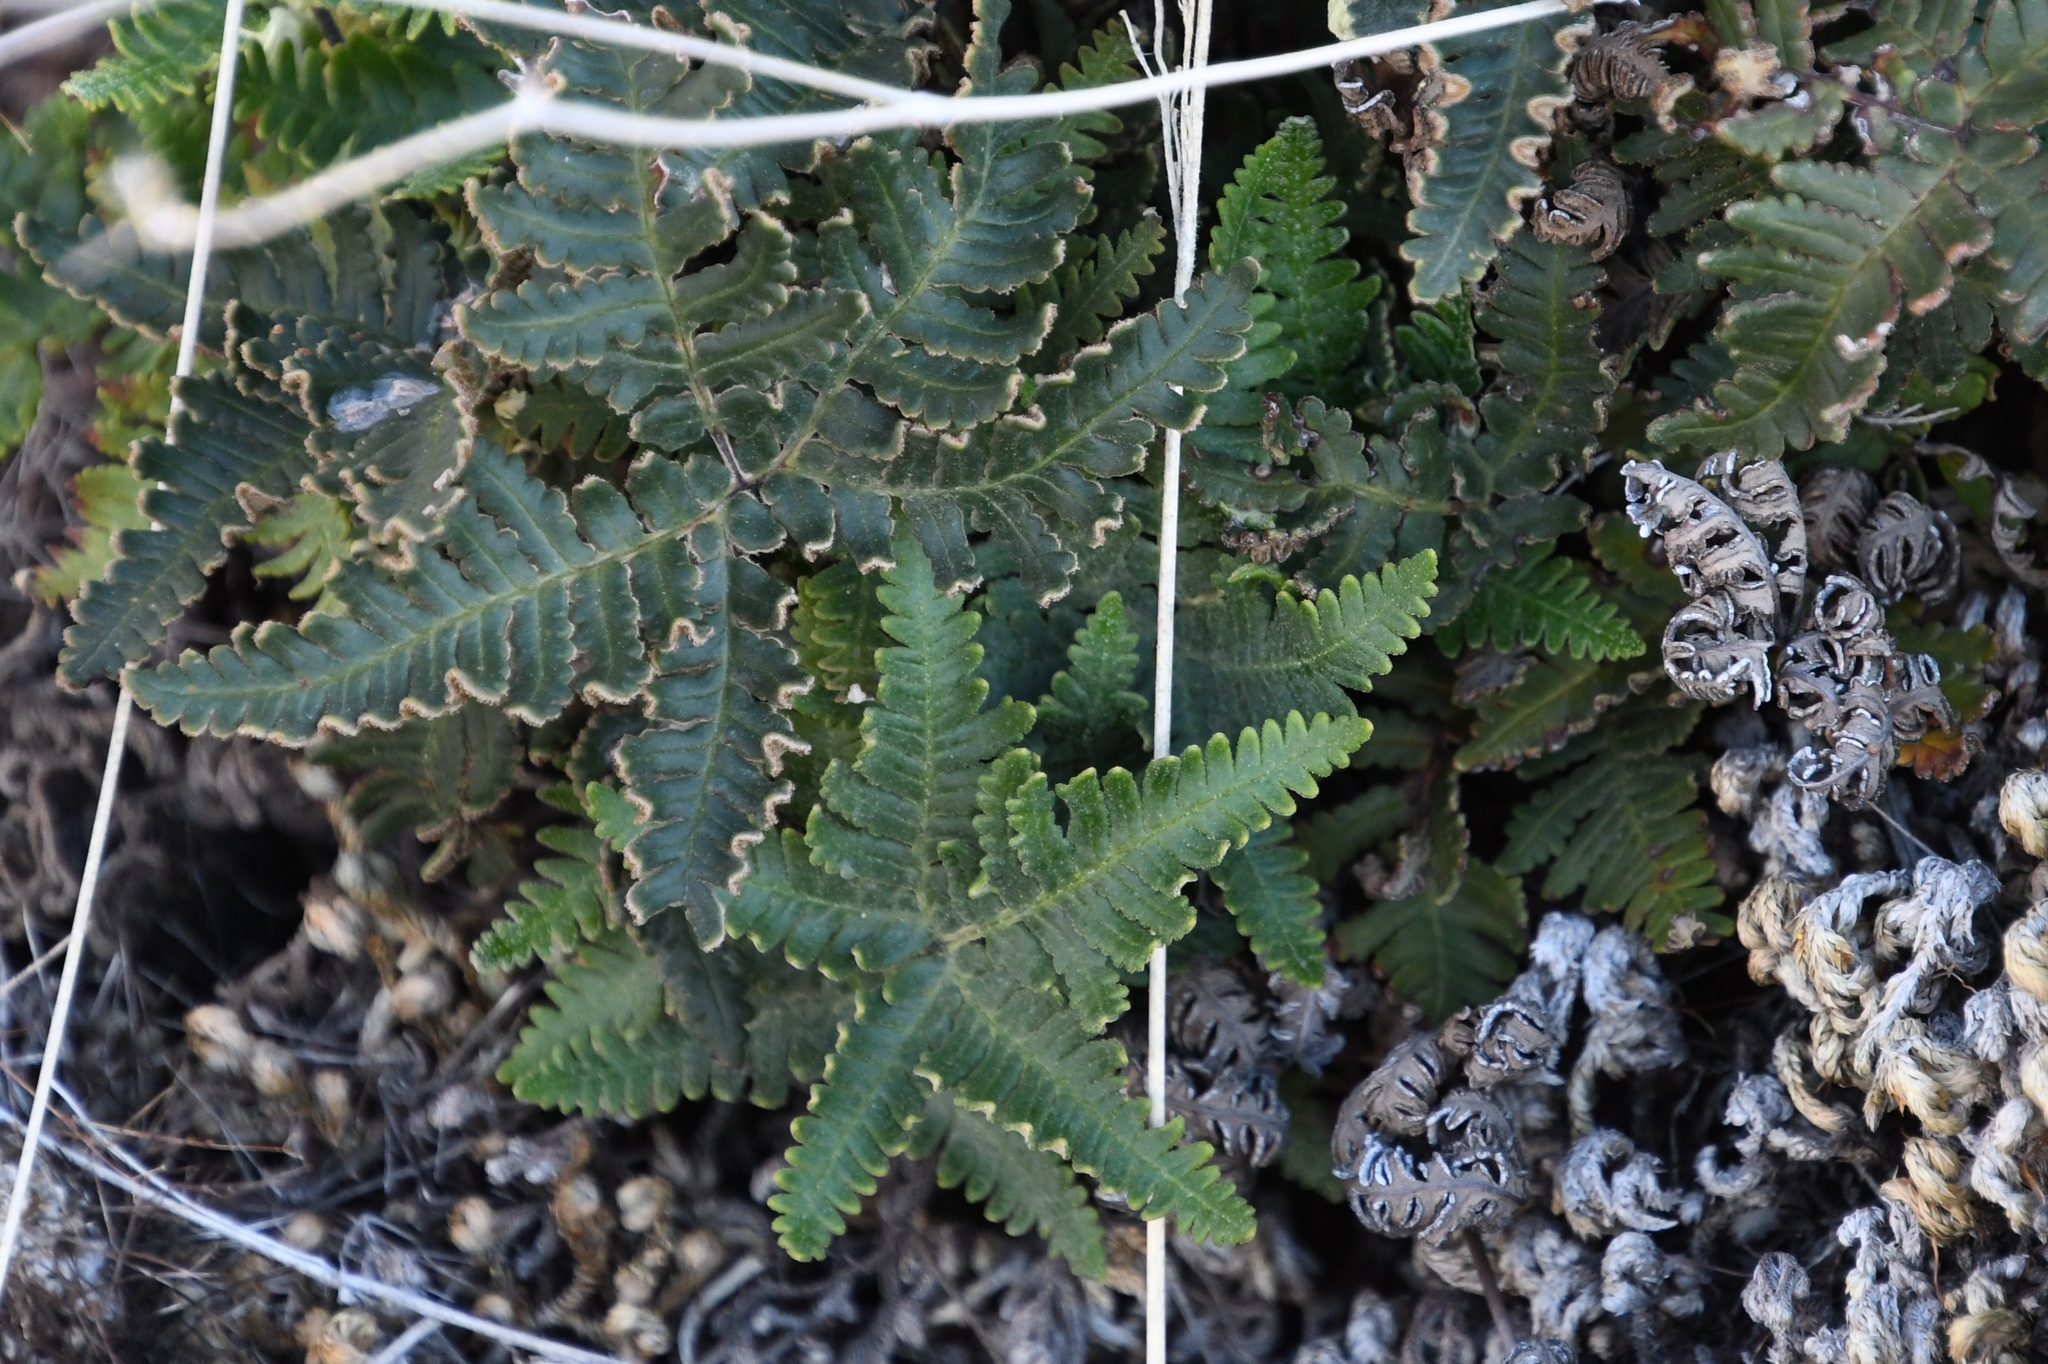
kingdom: Plantae
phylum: Tracheophyta
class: Polypodiopsida
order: Polypodiales
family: Pteridaceae
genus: Notholaena
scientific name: Notholaena standleyi
